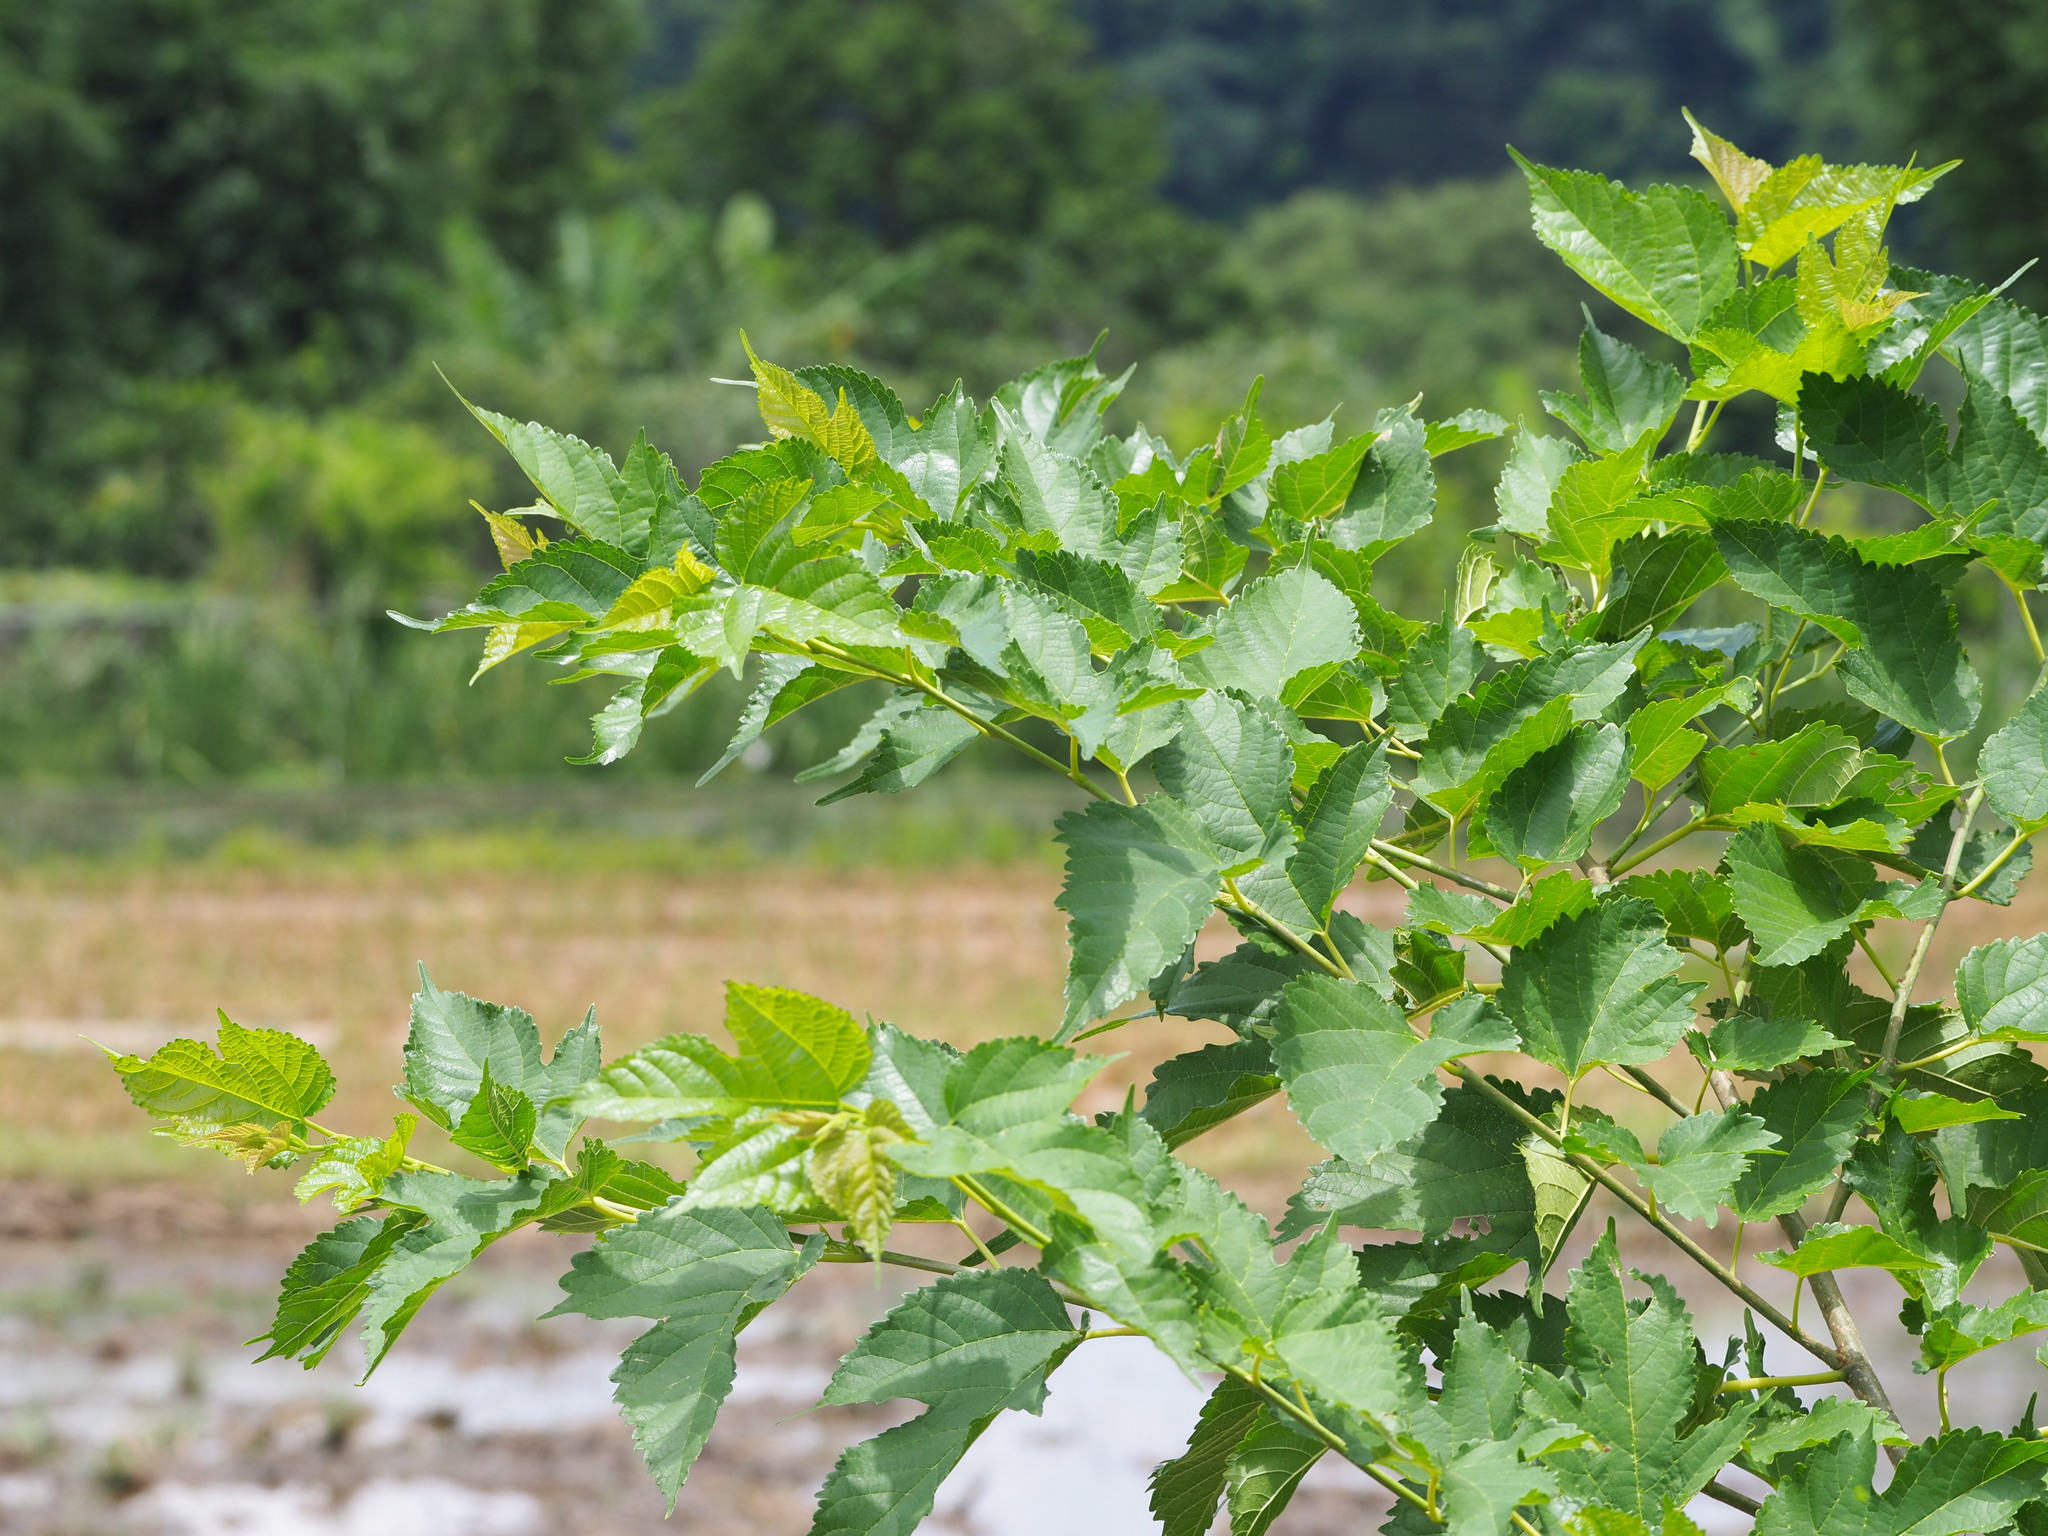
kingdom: Plantae
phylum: Tracheophyta
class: Magnoliopsida
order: Rosales
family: Moraceae
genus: Morus
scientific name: Morus indica
